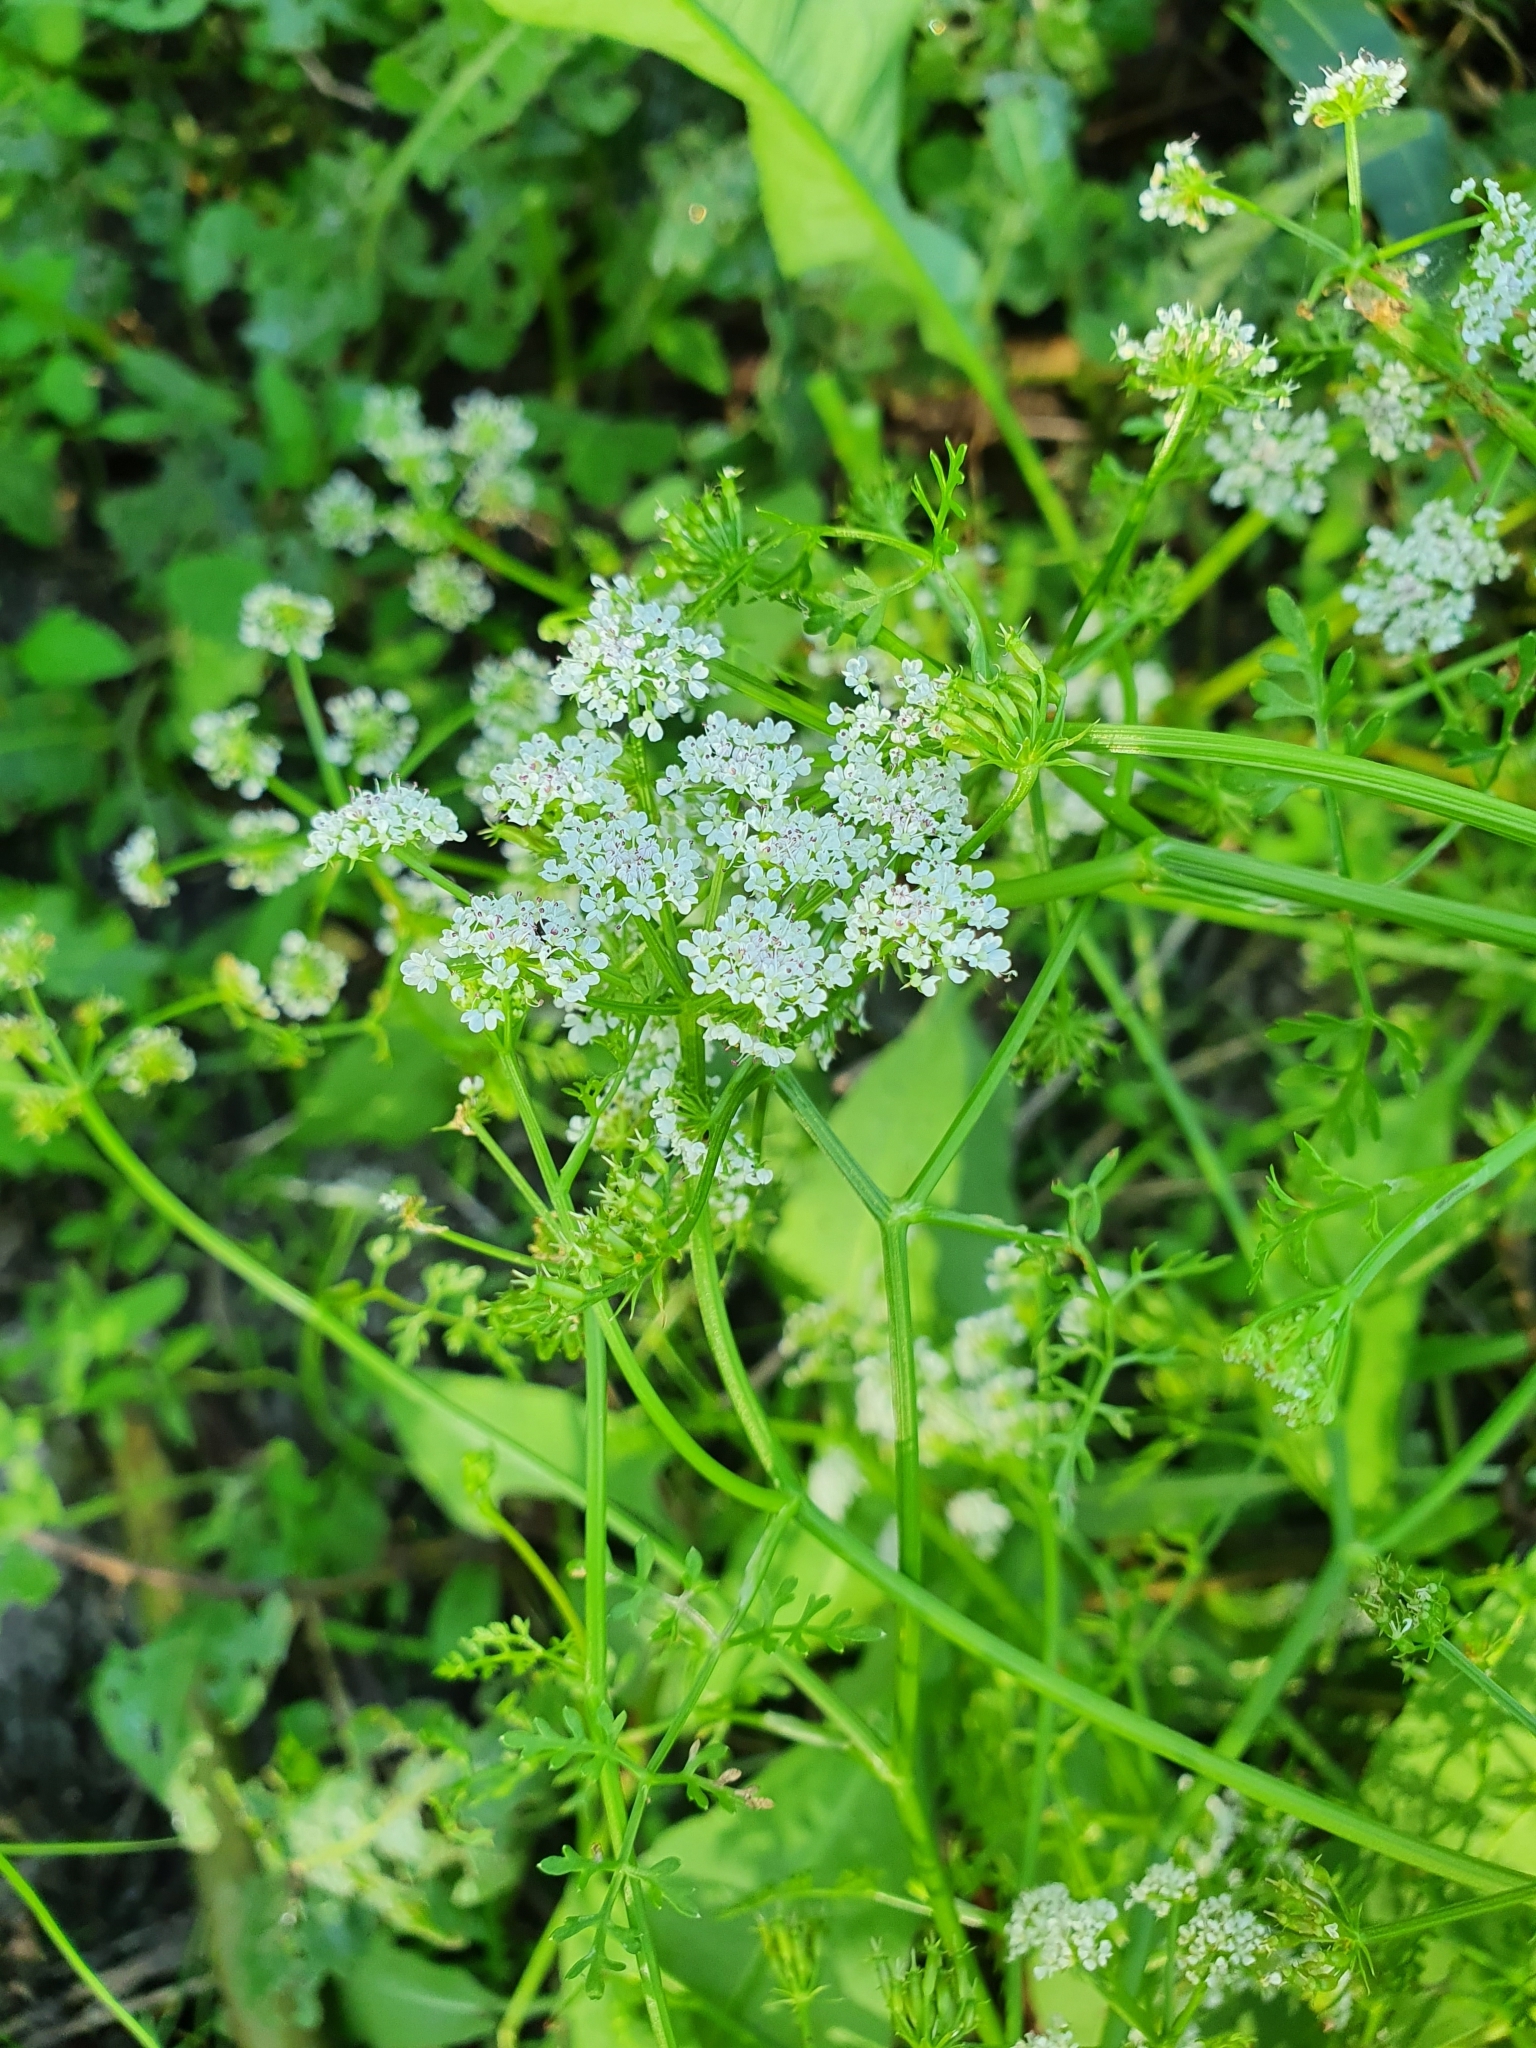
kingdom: Plantae
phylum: Tracheophyta
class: Magnoliopsida
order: Apiales
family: Apiaceae
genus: Oenanthe
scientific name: Oenanthe aquatica
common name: Fine-leaved water-dropwort
